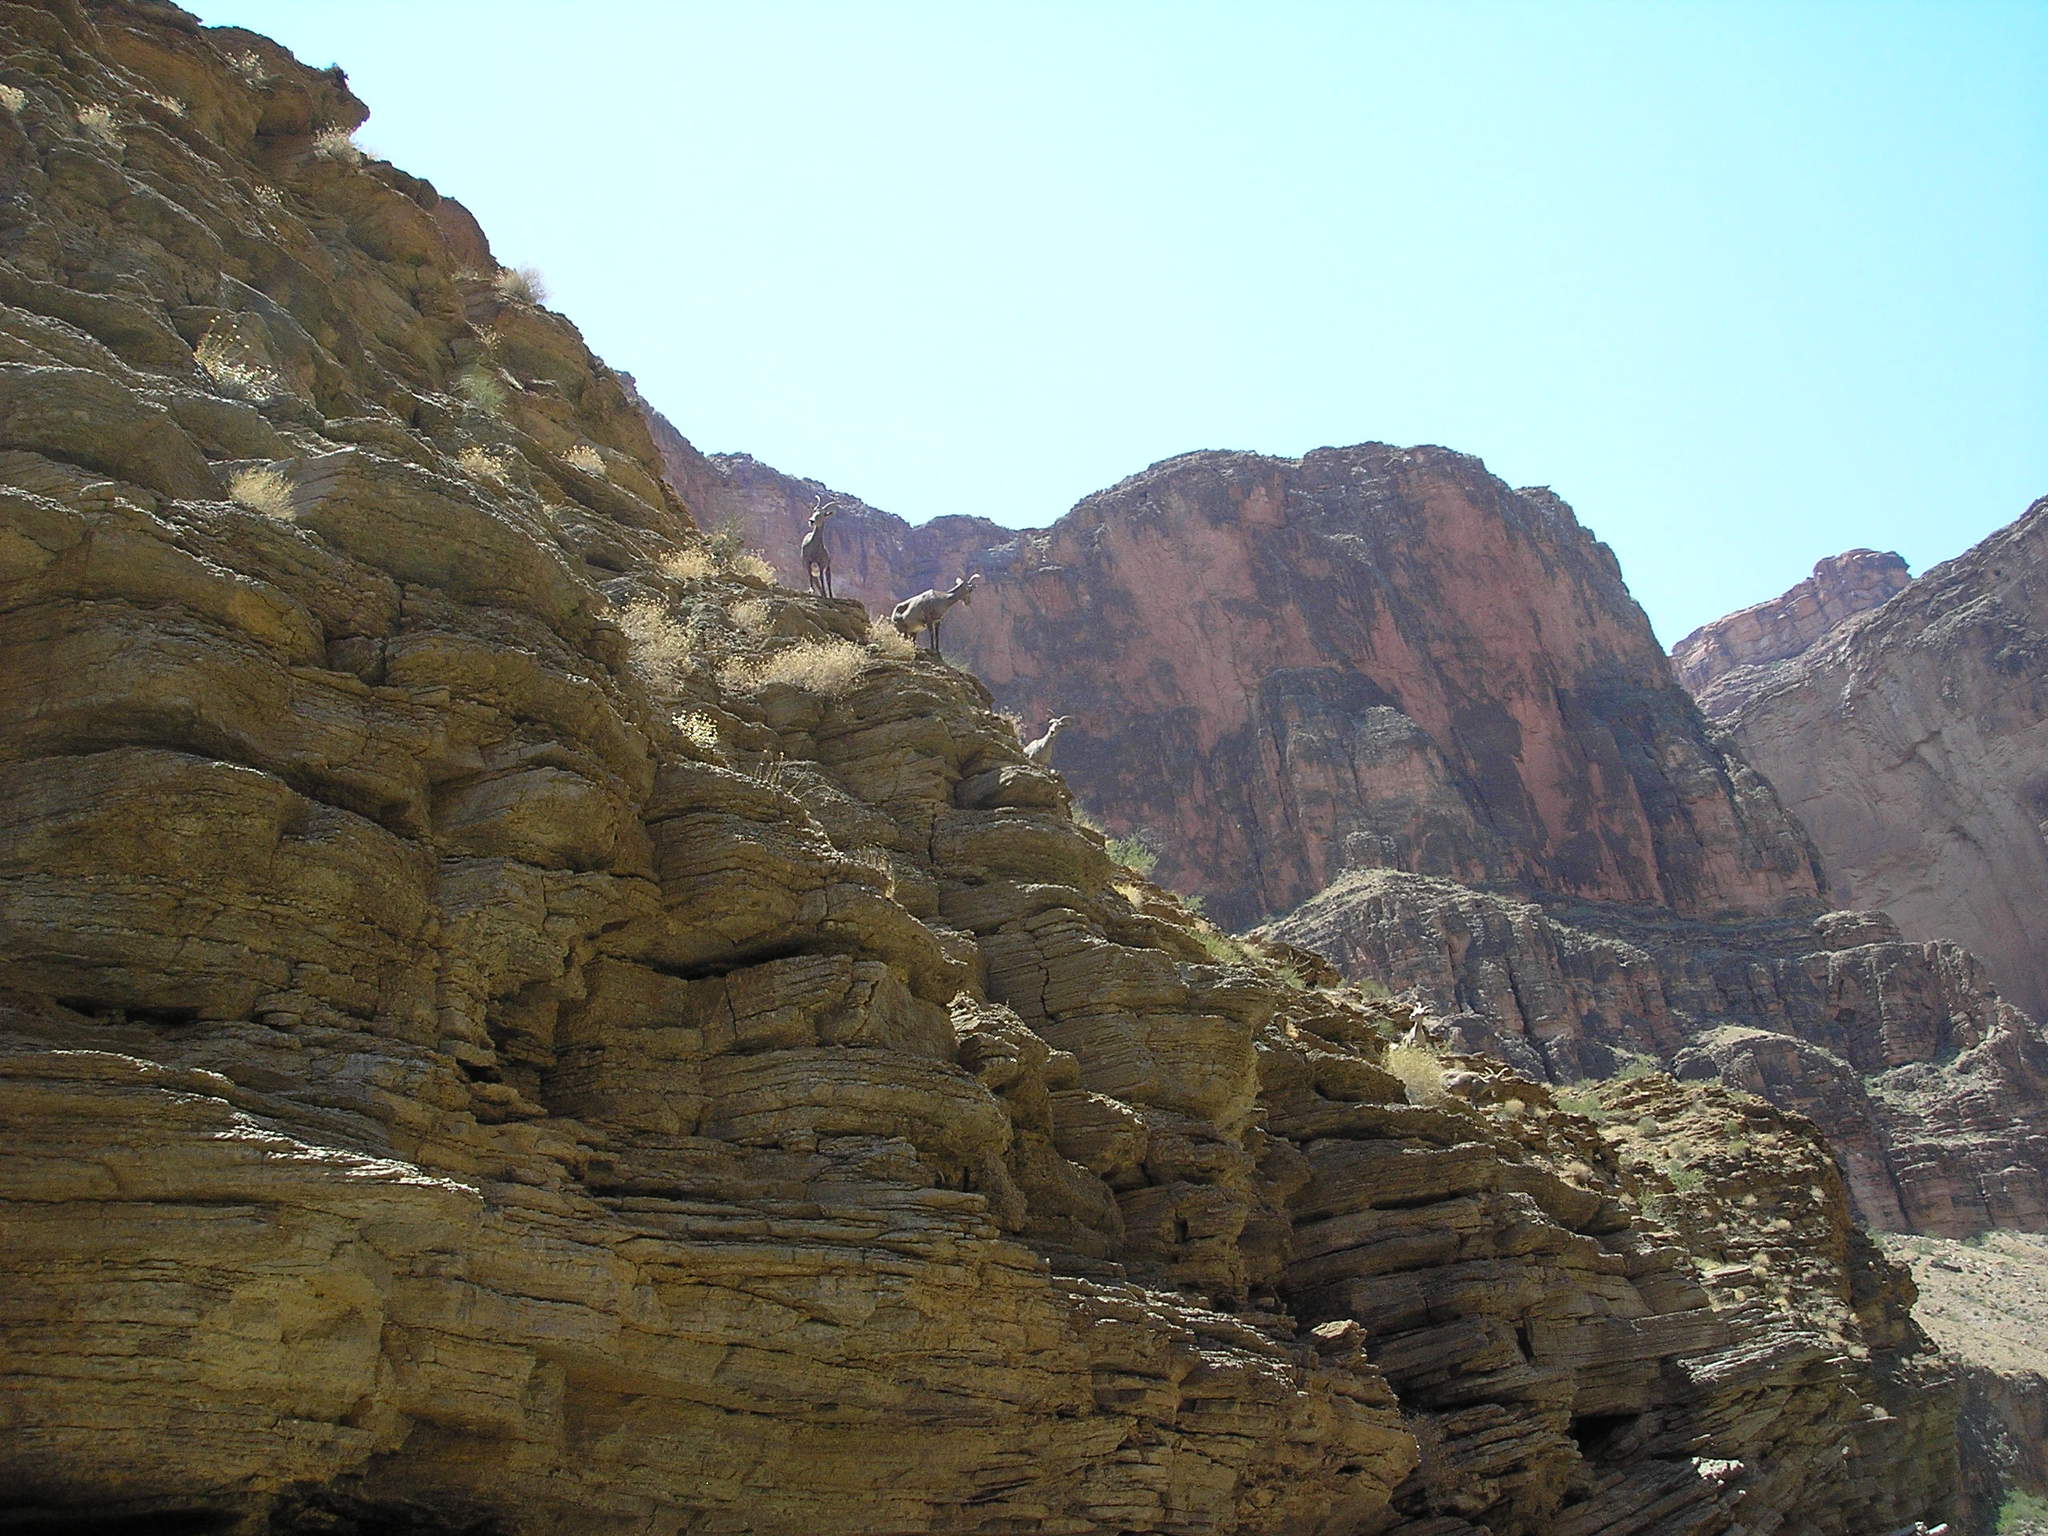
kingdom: Animalia
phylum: Chordata
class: Mammalia
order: Artiodactyla
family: Bovidae
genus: Ovis
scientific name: Ovis canadensis
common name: Bighorn sheep
